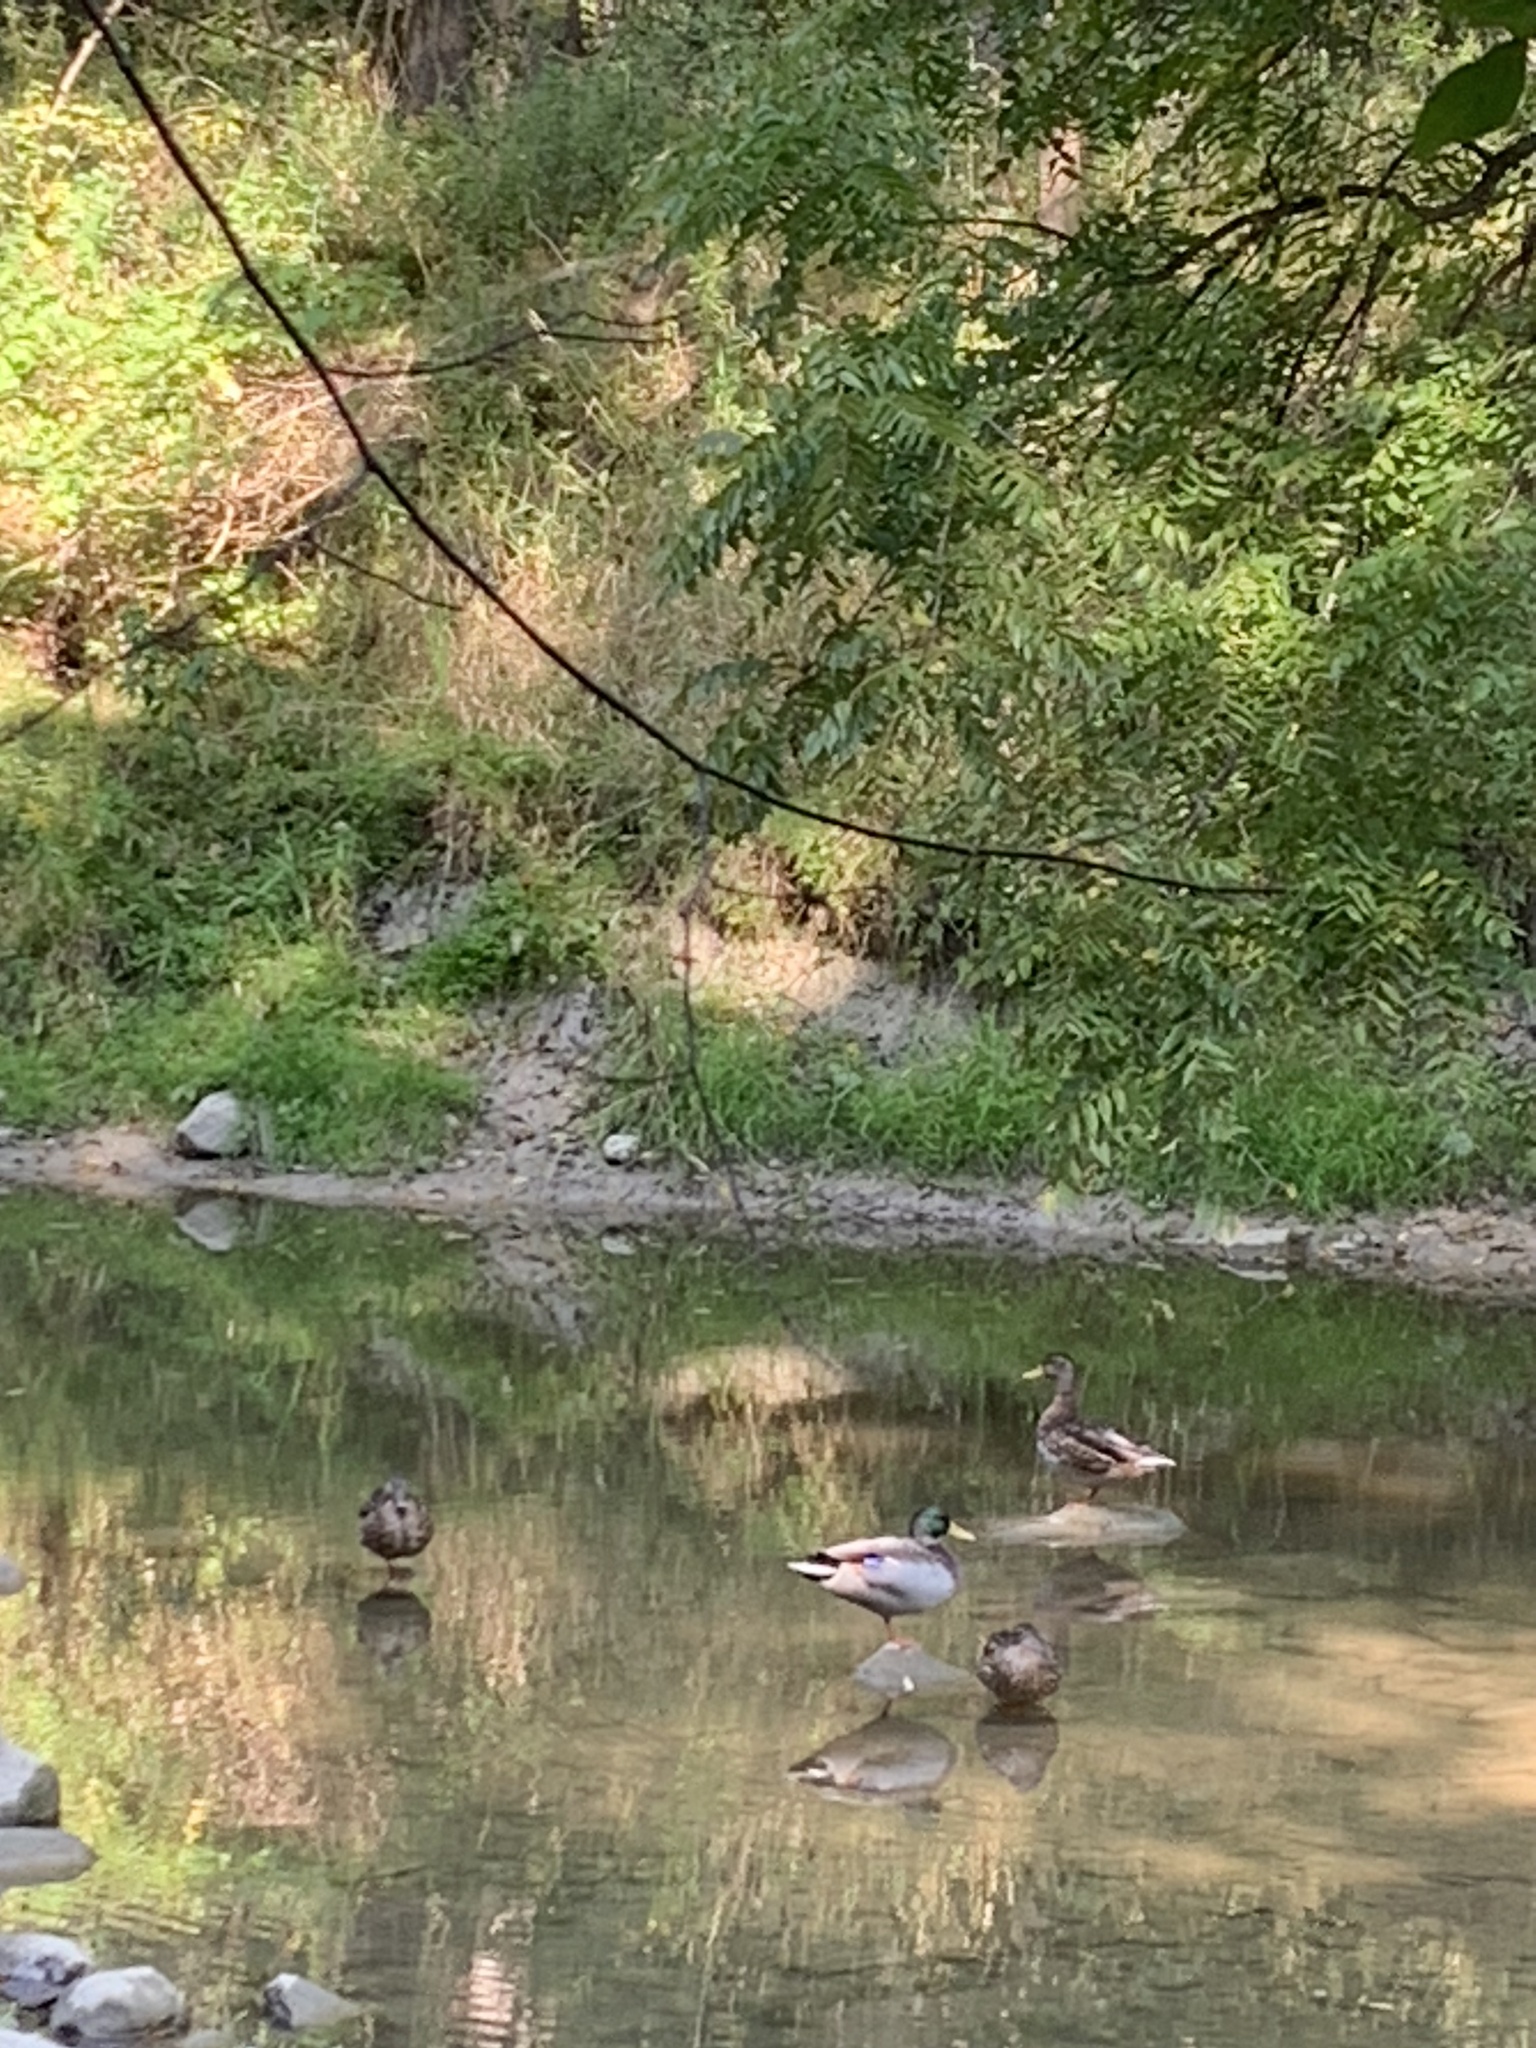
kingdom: Animalia
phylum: Chordata
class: Aves
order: Anseriformes
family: Anatidae
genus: Anas
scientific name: Anas platyrhynchos
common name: Mallard
